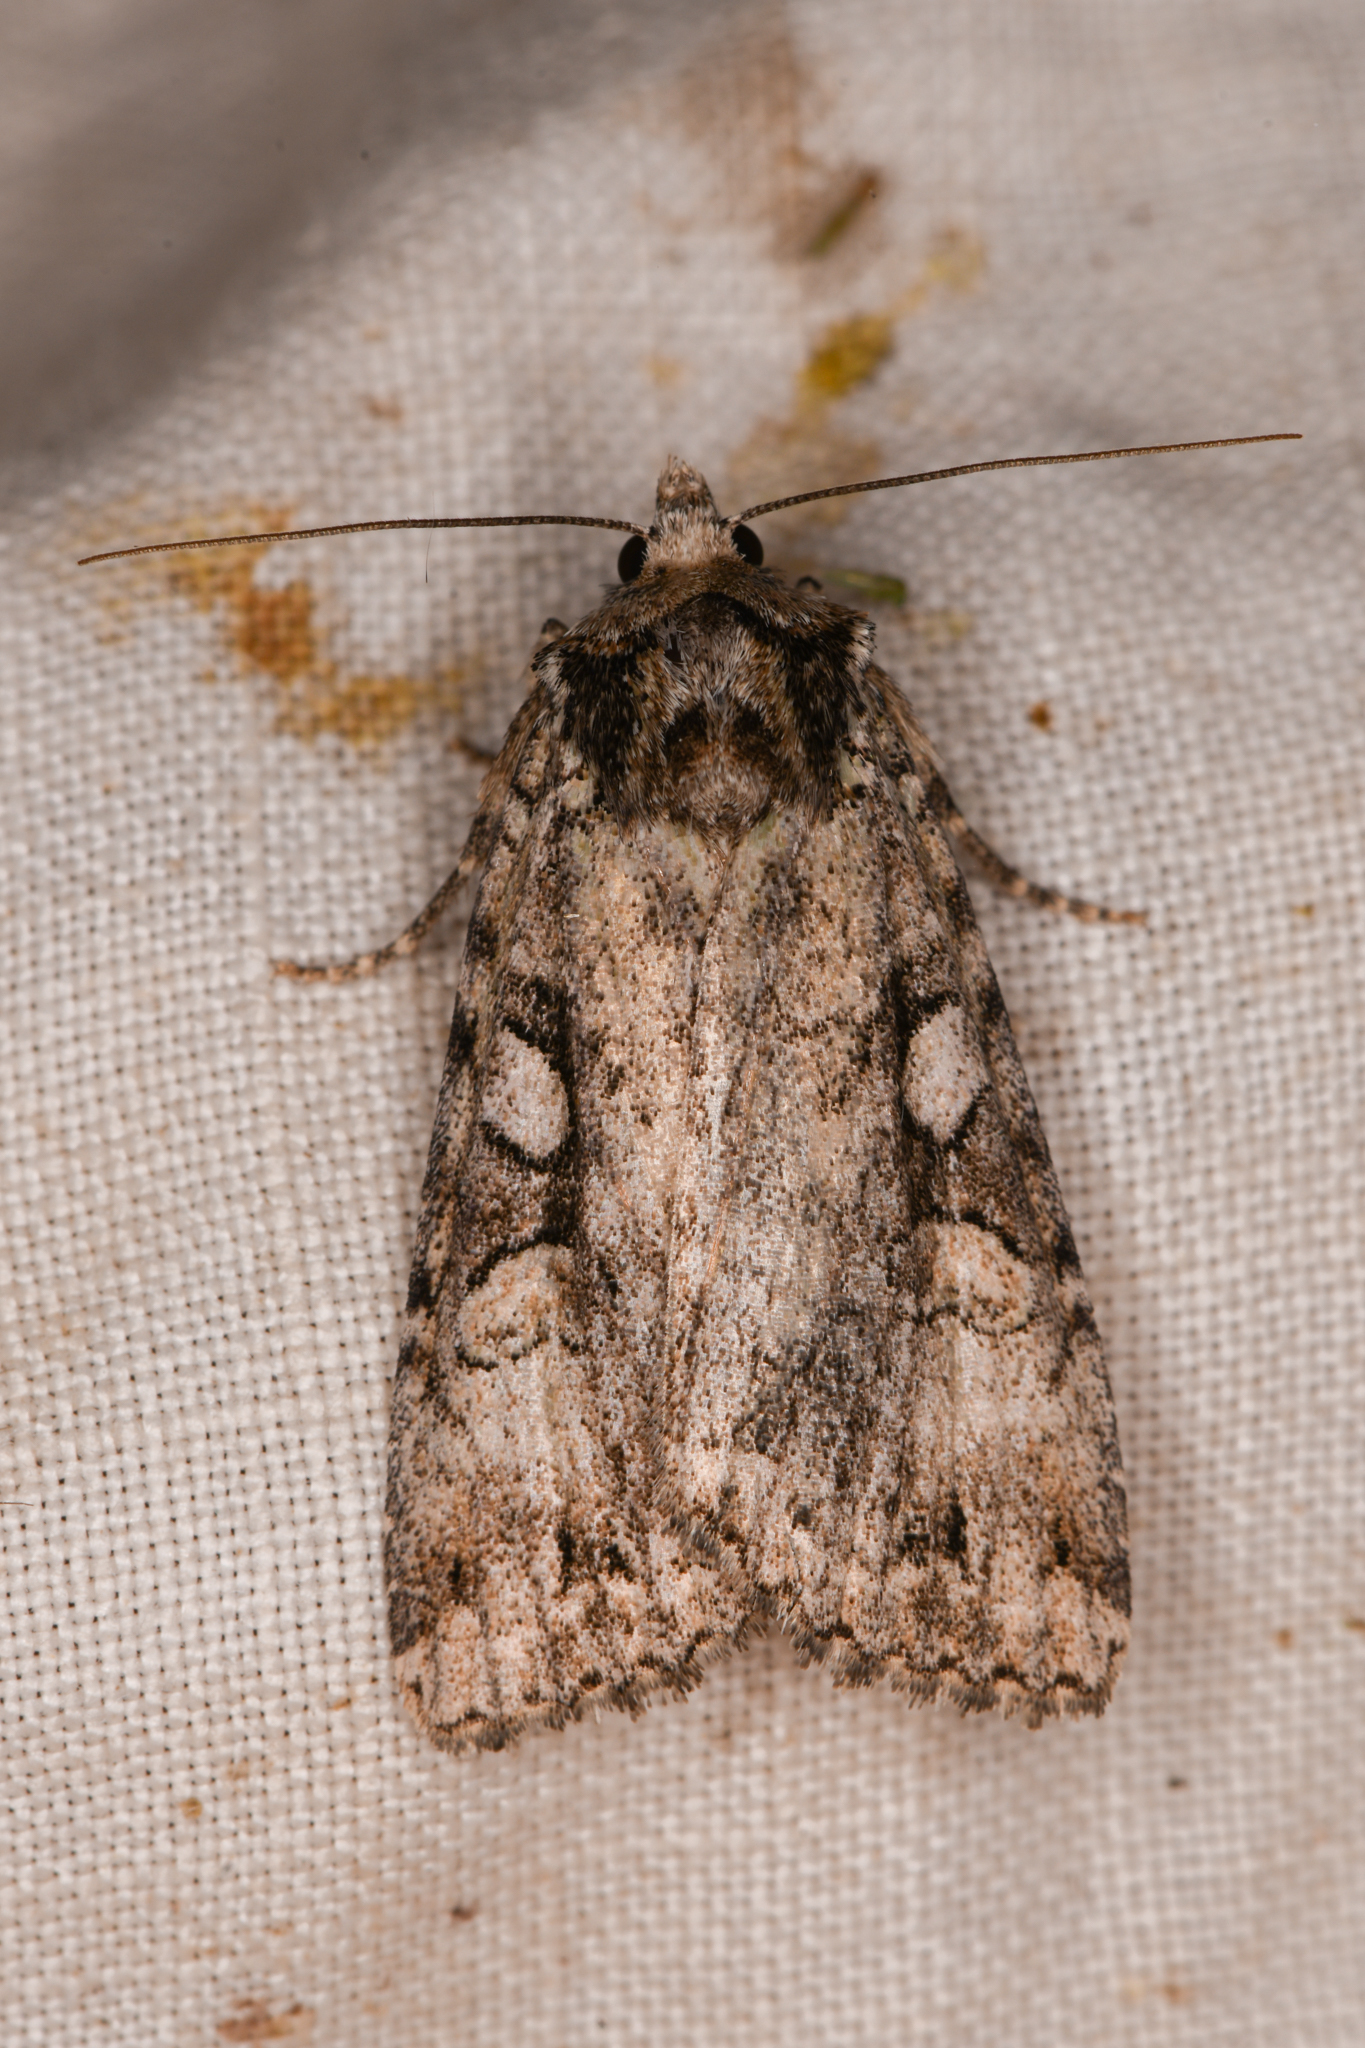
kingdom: Animalia
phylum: Arthropoda
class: Insecta
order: Lepidoptera
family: Noctuidae
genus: Anaplectoides
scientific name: Anaplectoides pressus
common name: Dappled dart
